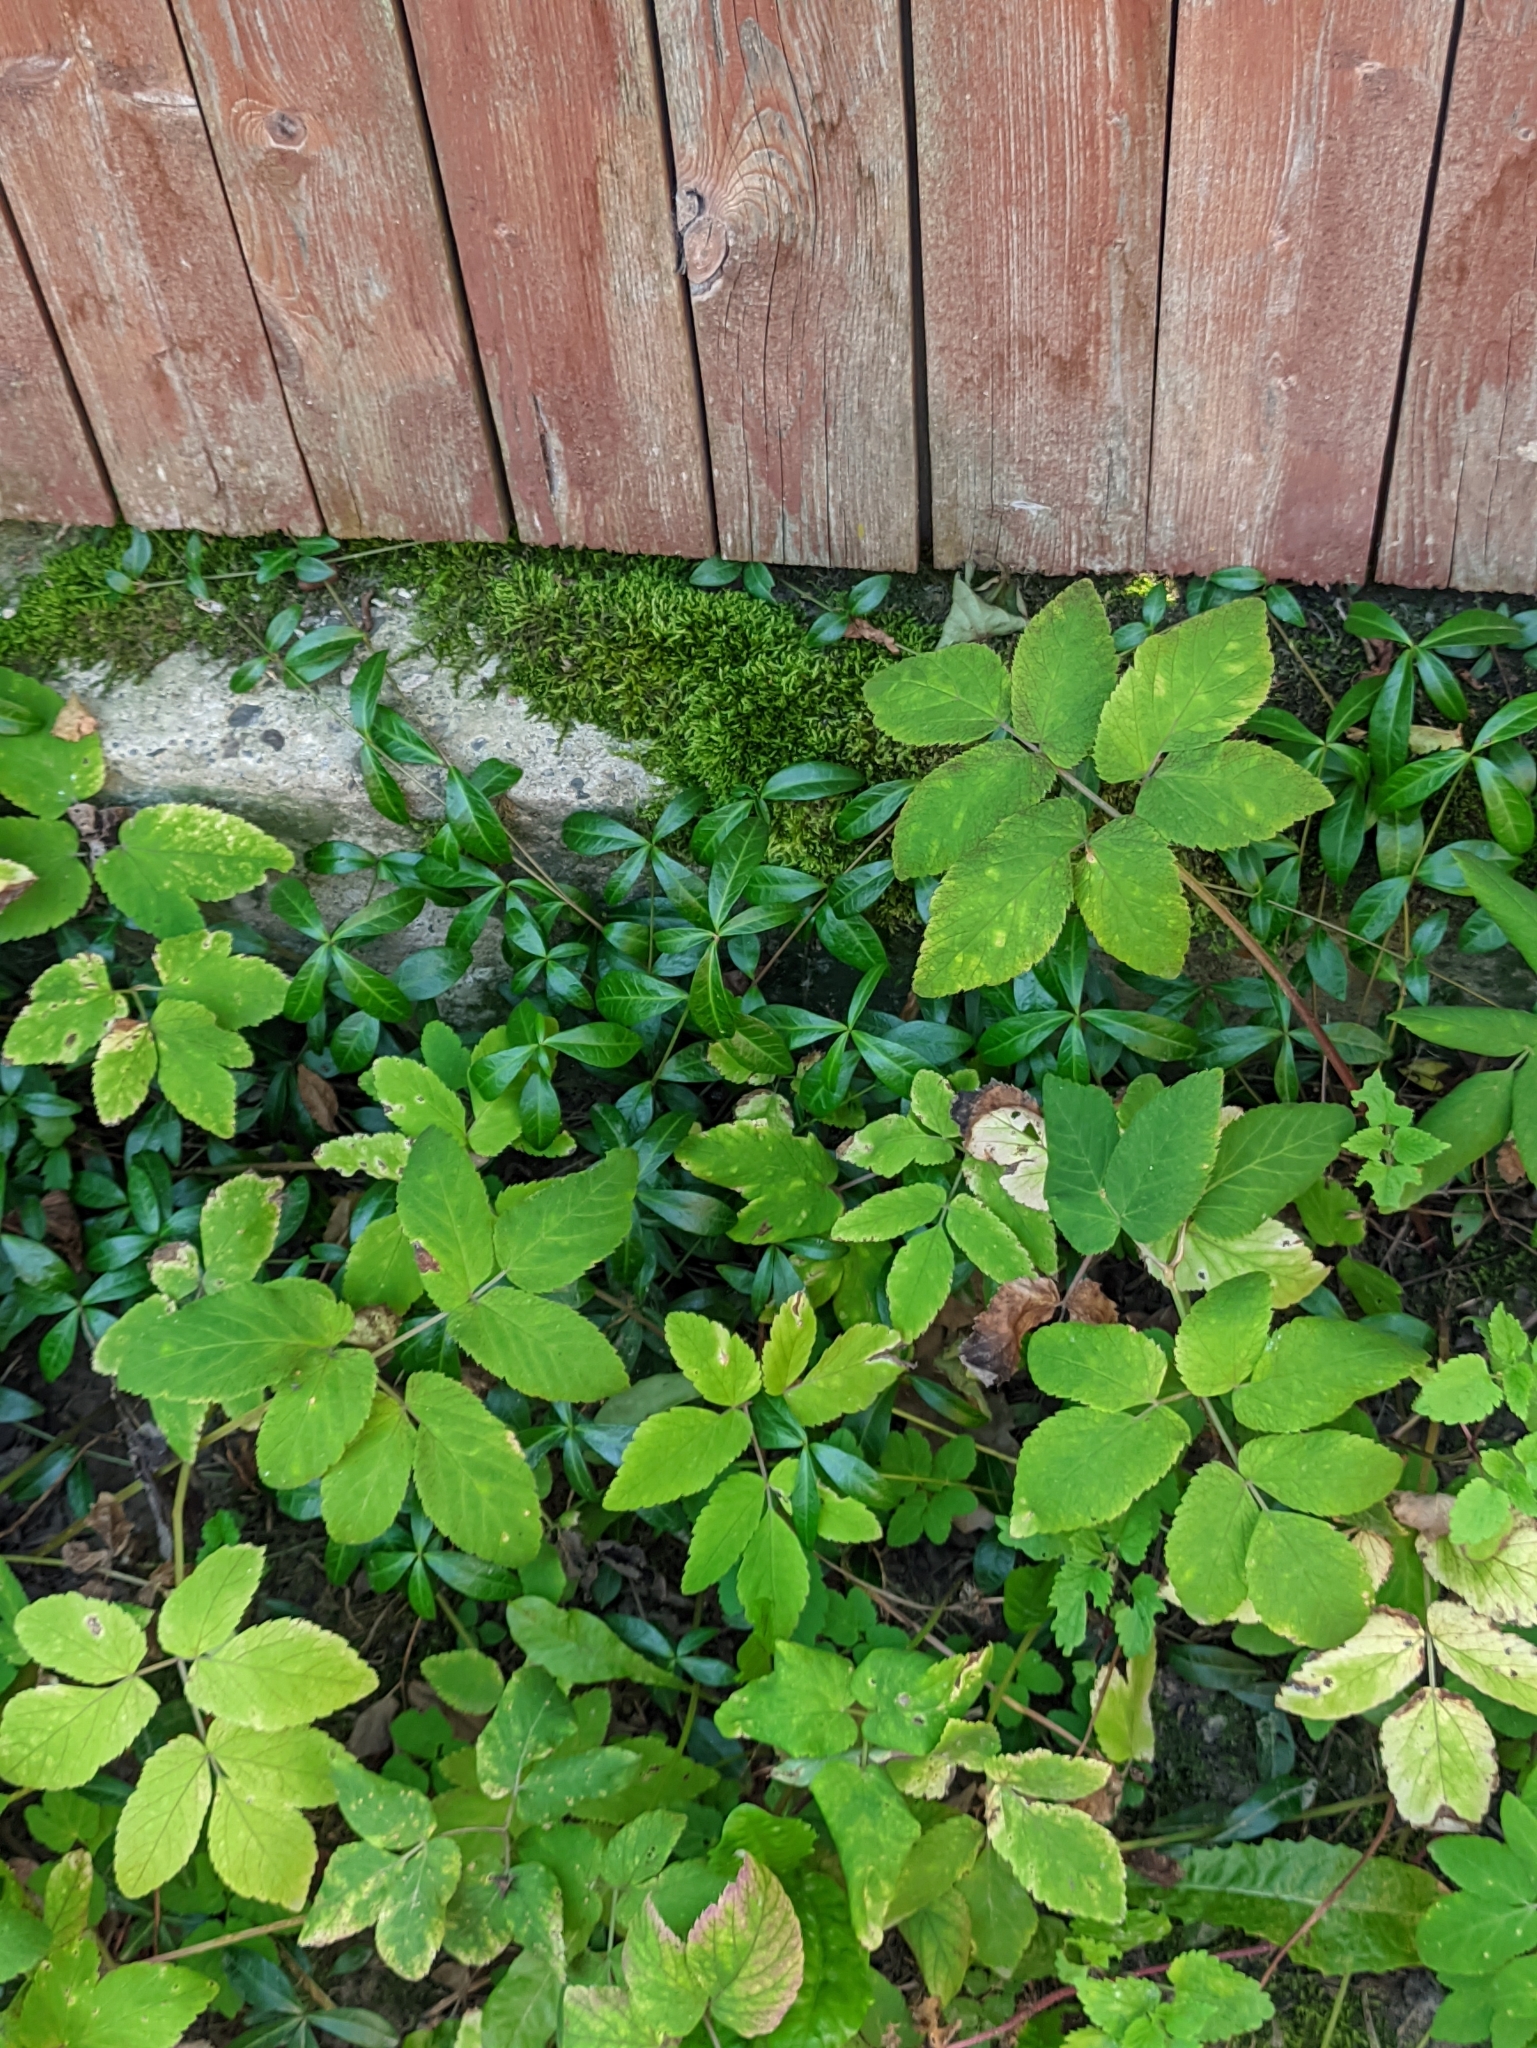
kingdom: Plantae
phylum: Tracheophyta
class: Magnoliopsida
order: Gentianales
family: Apocynaceae
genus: Vinca
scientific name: Vinca minor
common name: Lesser periwinkle
